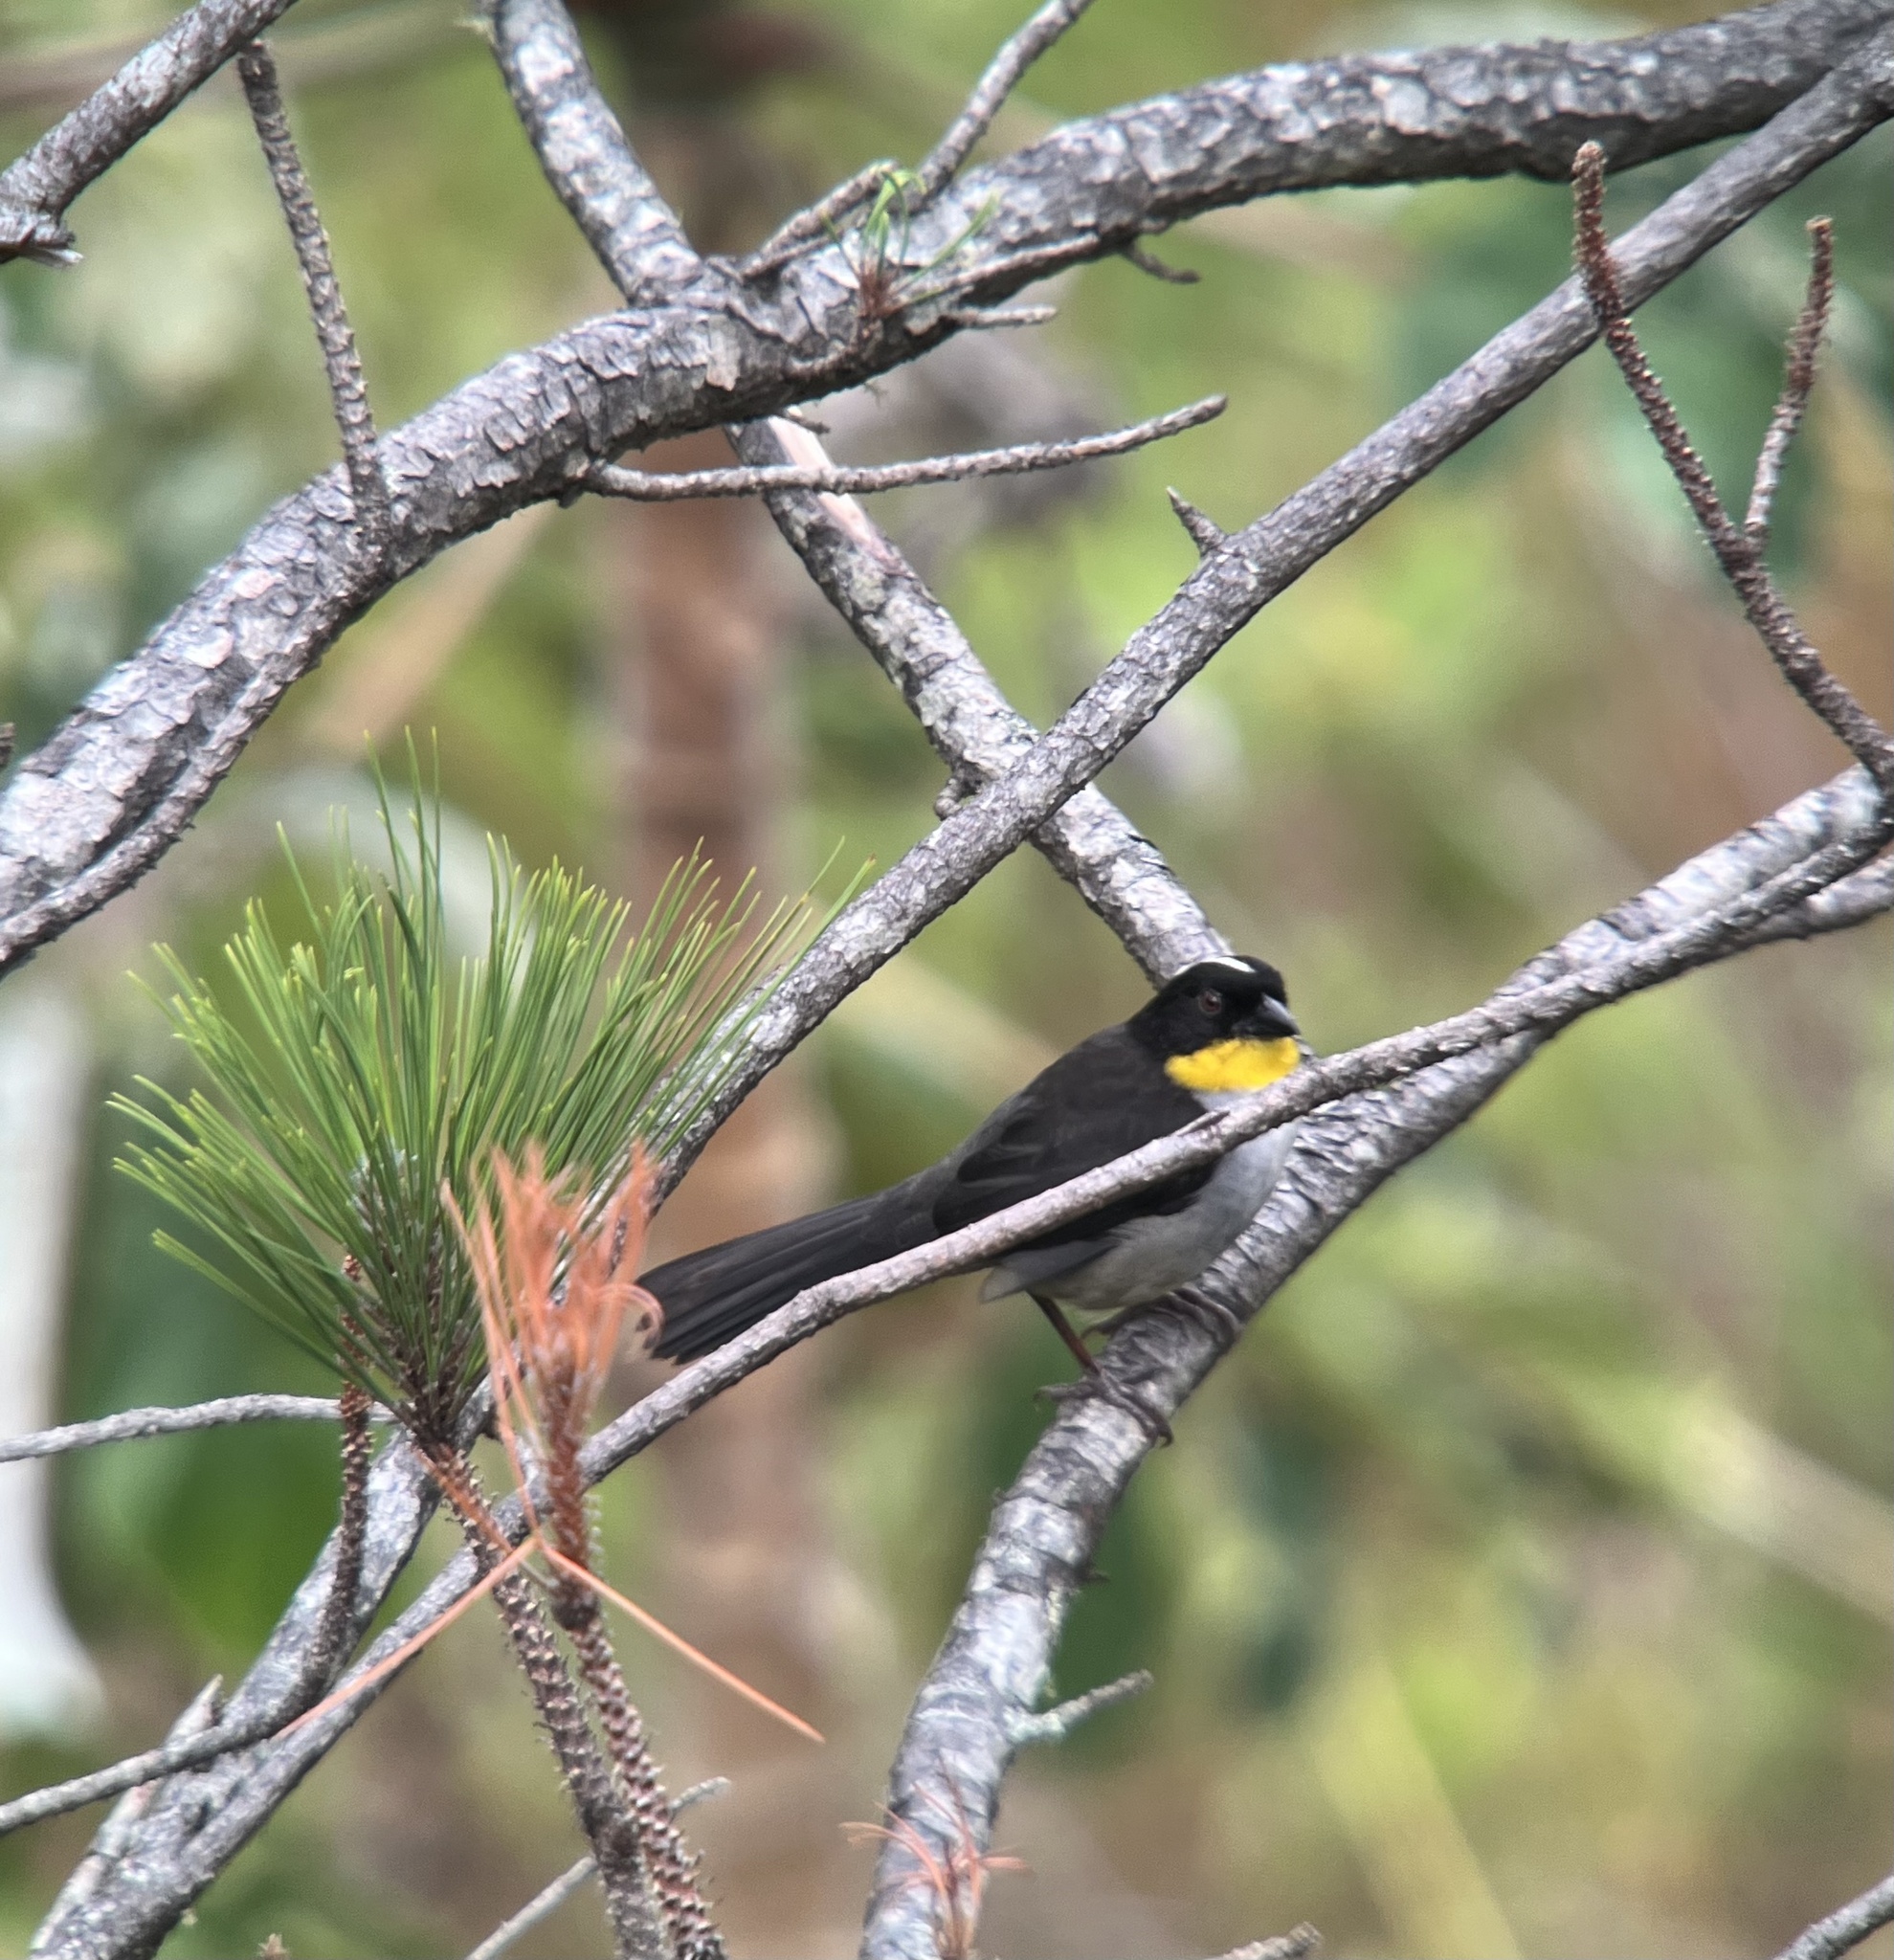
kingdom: Animalia
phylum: Chordata
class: Aves
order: Passeriformes
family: Passerellidae
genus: Atlapetes
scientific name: Atlapetes albinucha
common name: White-naped brush-finch
